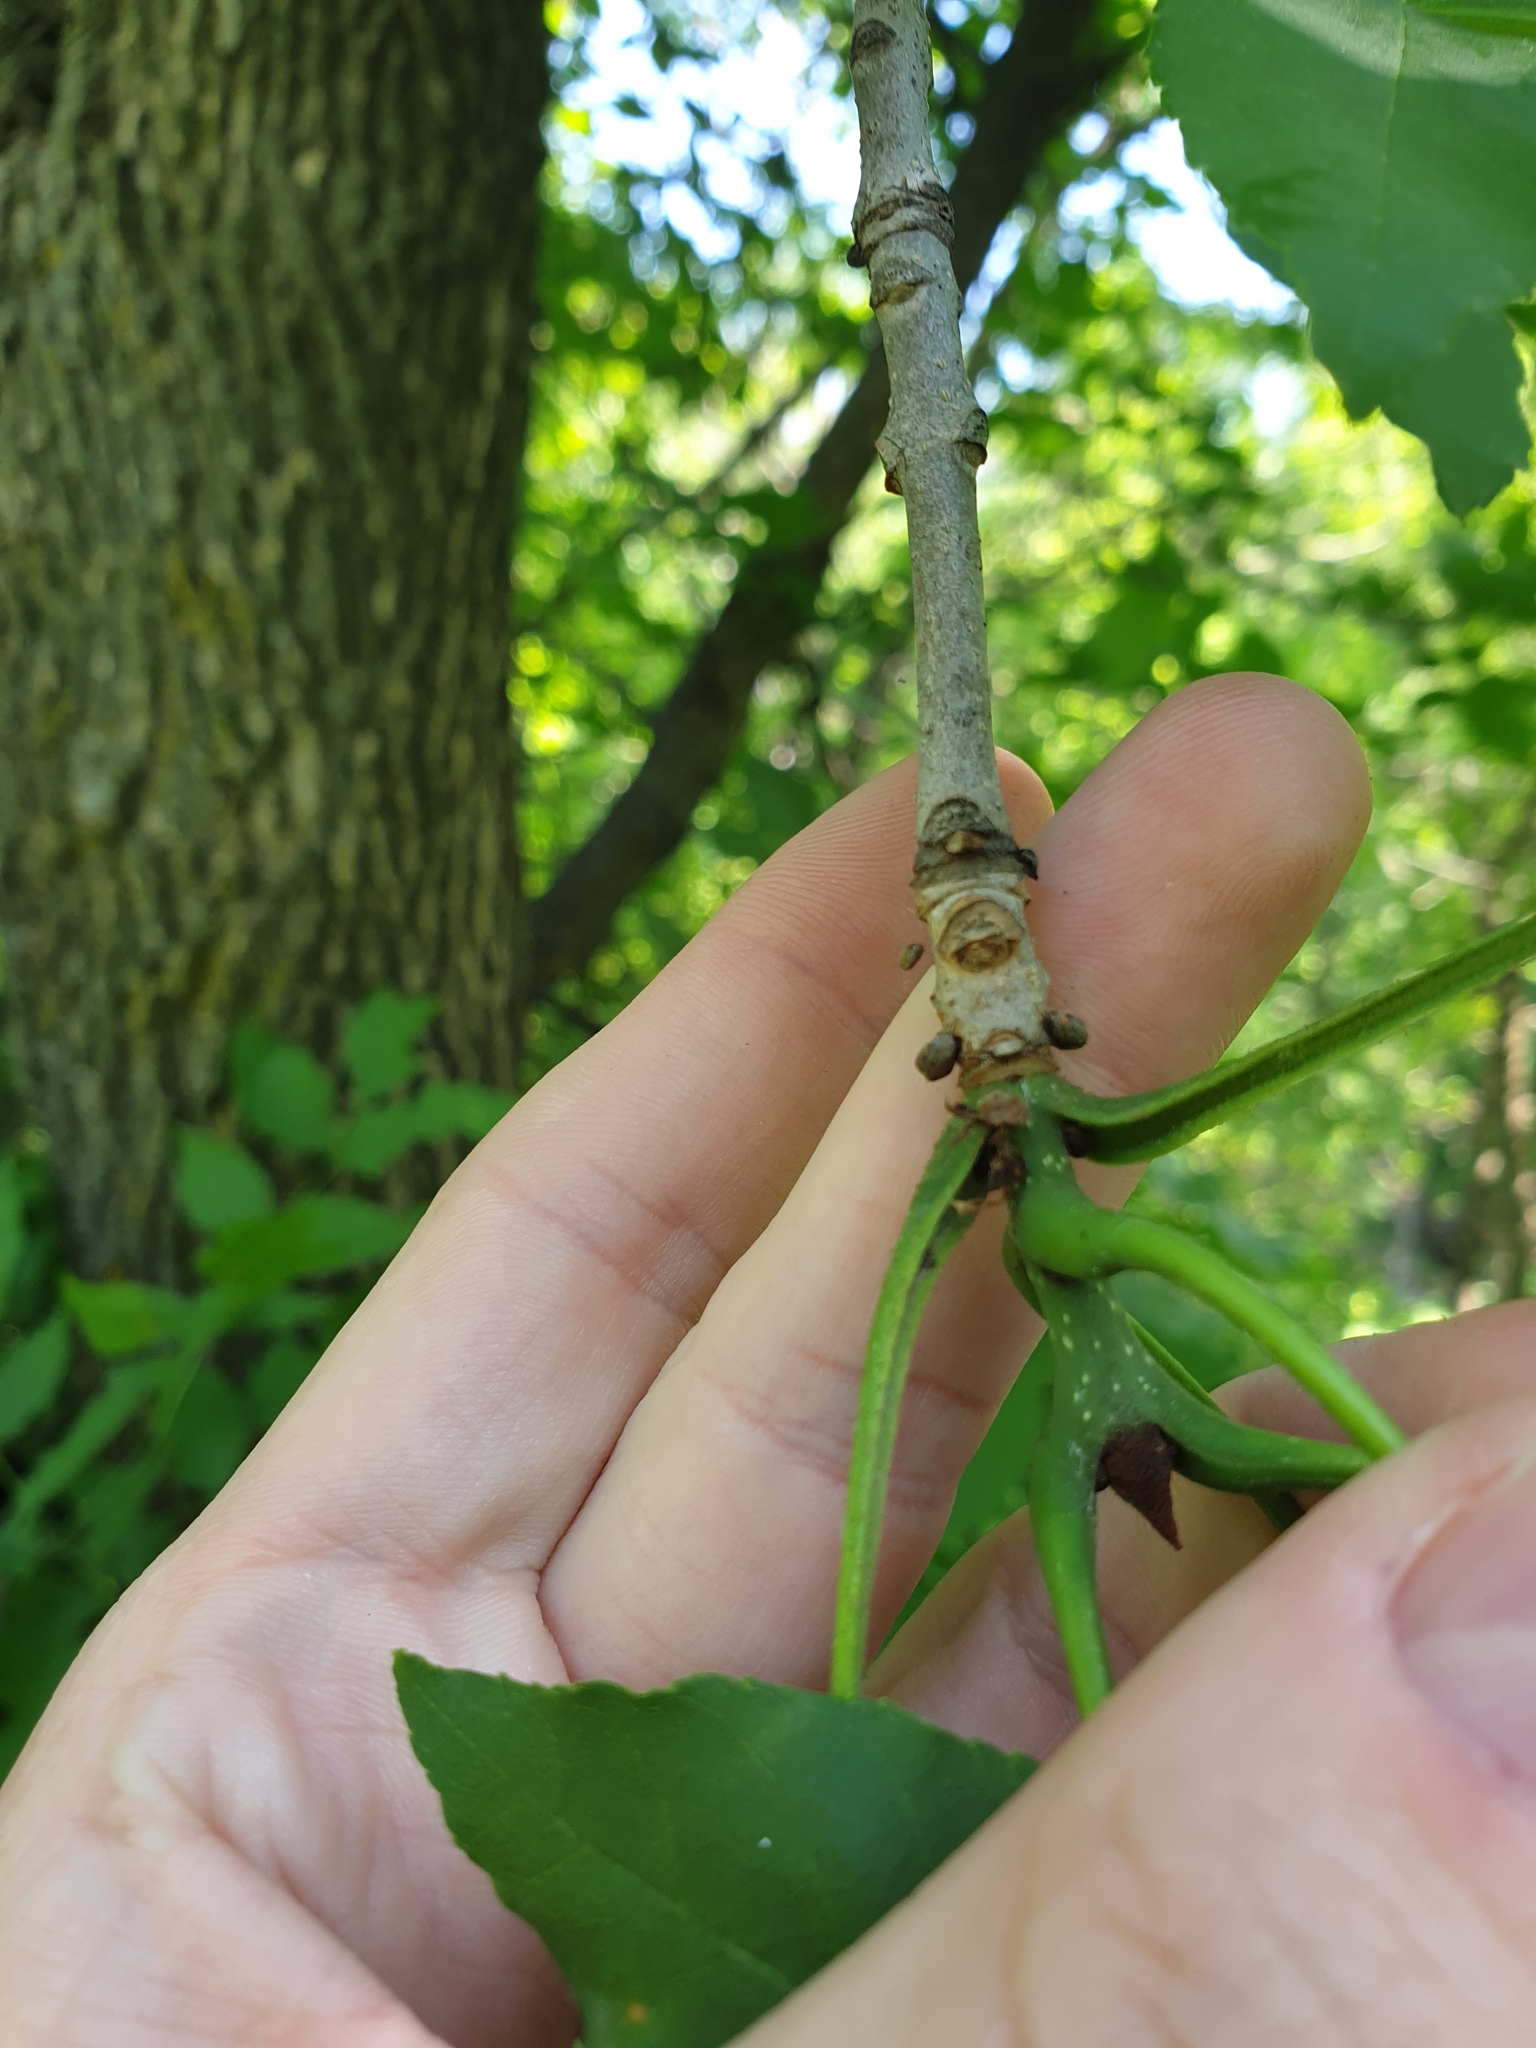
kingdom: Plantae
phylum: Tracheophyta
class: Magnoliopsida
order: Lamiales
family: Oleaceae
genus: Fraxinus
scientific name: Fraxinus pennsylvanica
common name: Green ash
